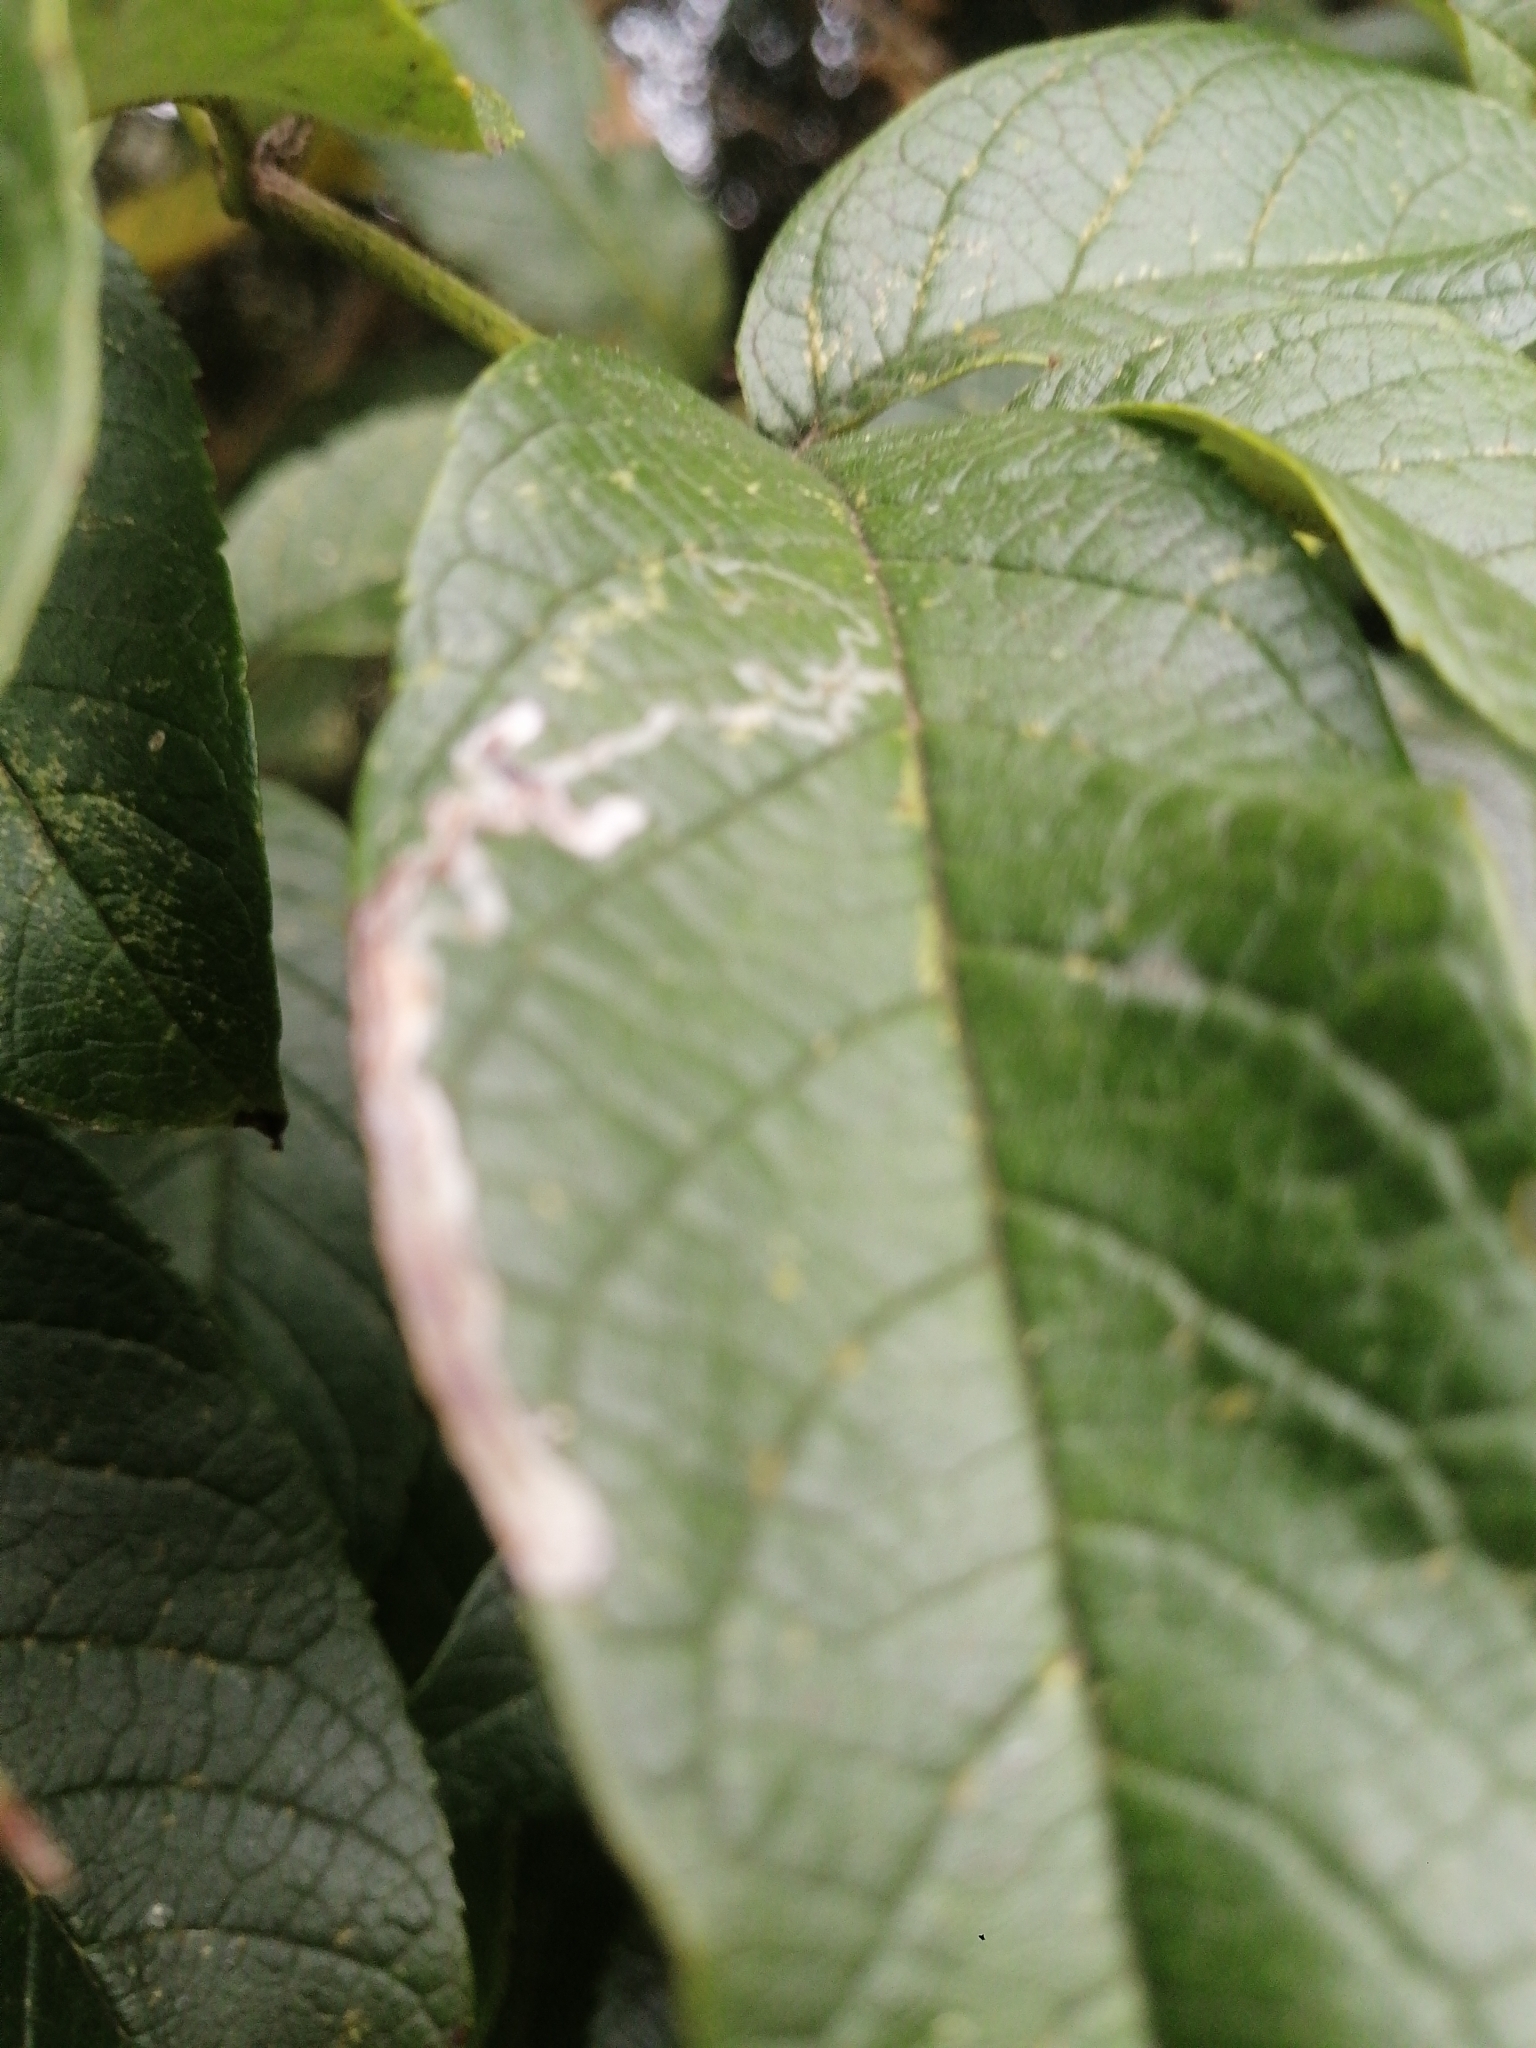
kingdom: Plantae
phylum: Tracheophyta
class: Magnoliopsida
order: Lamiales
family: Bignoniaceae
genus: Tecoma
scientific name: Tecoma stans
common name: Yellow trumpetbush
